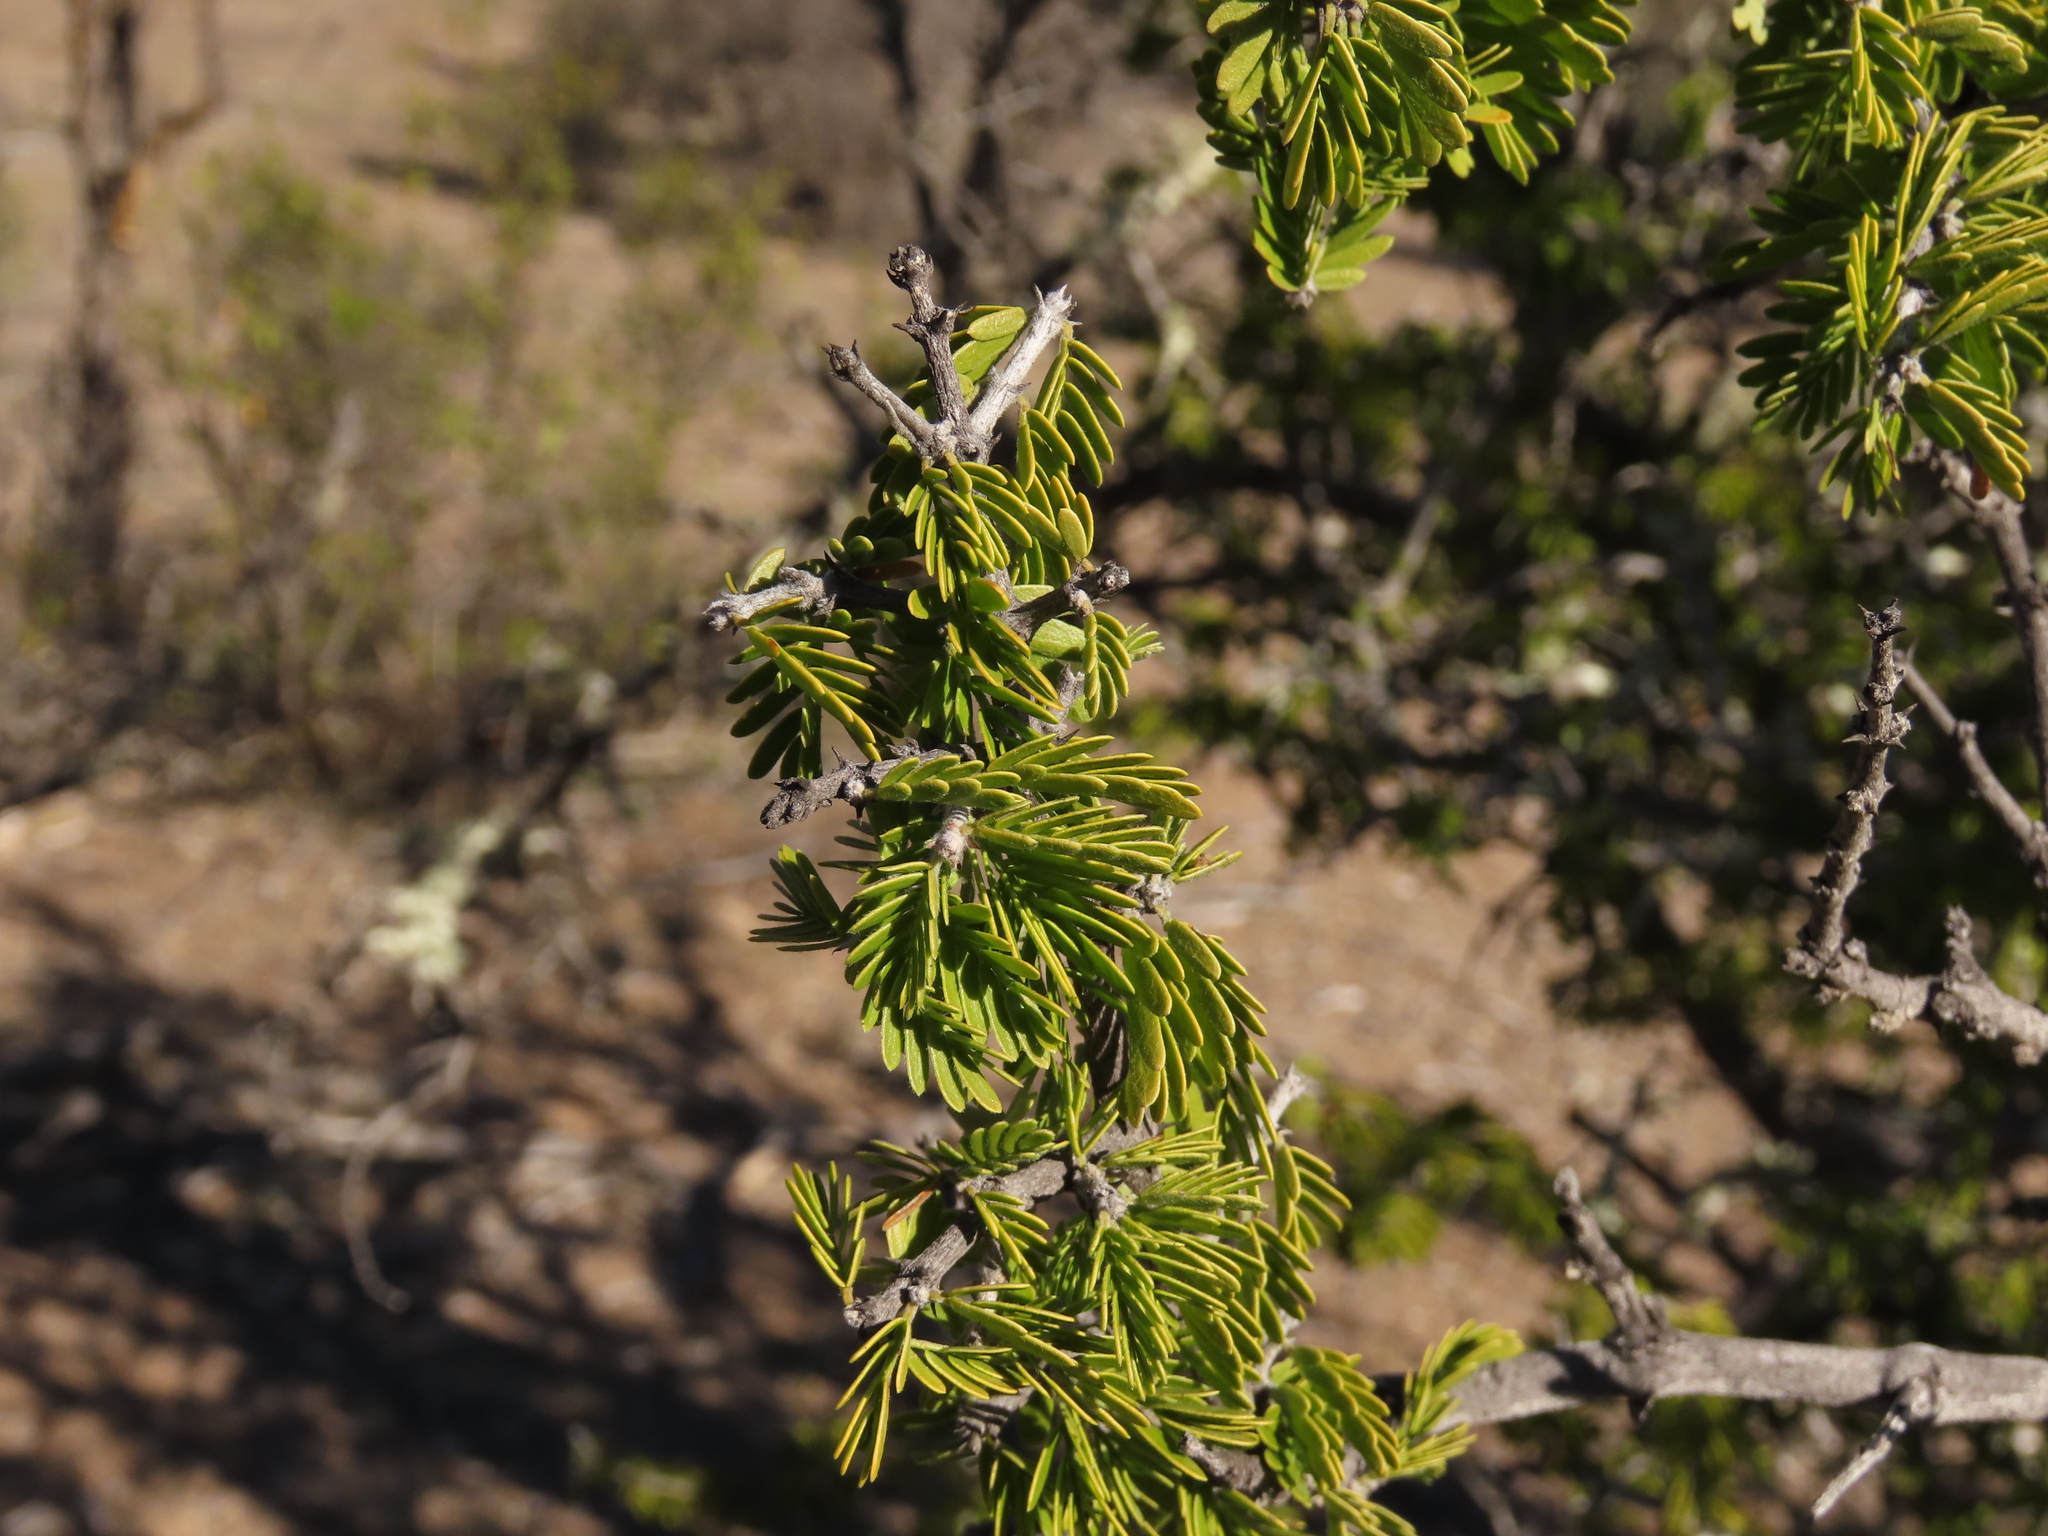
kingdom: Plantae
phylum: Tracheophyta
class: Magnoliopsida
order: Zygophyllales
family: Zygophyllaceae
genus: Porlieria
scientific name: Porlieria chilensis
